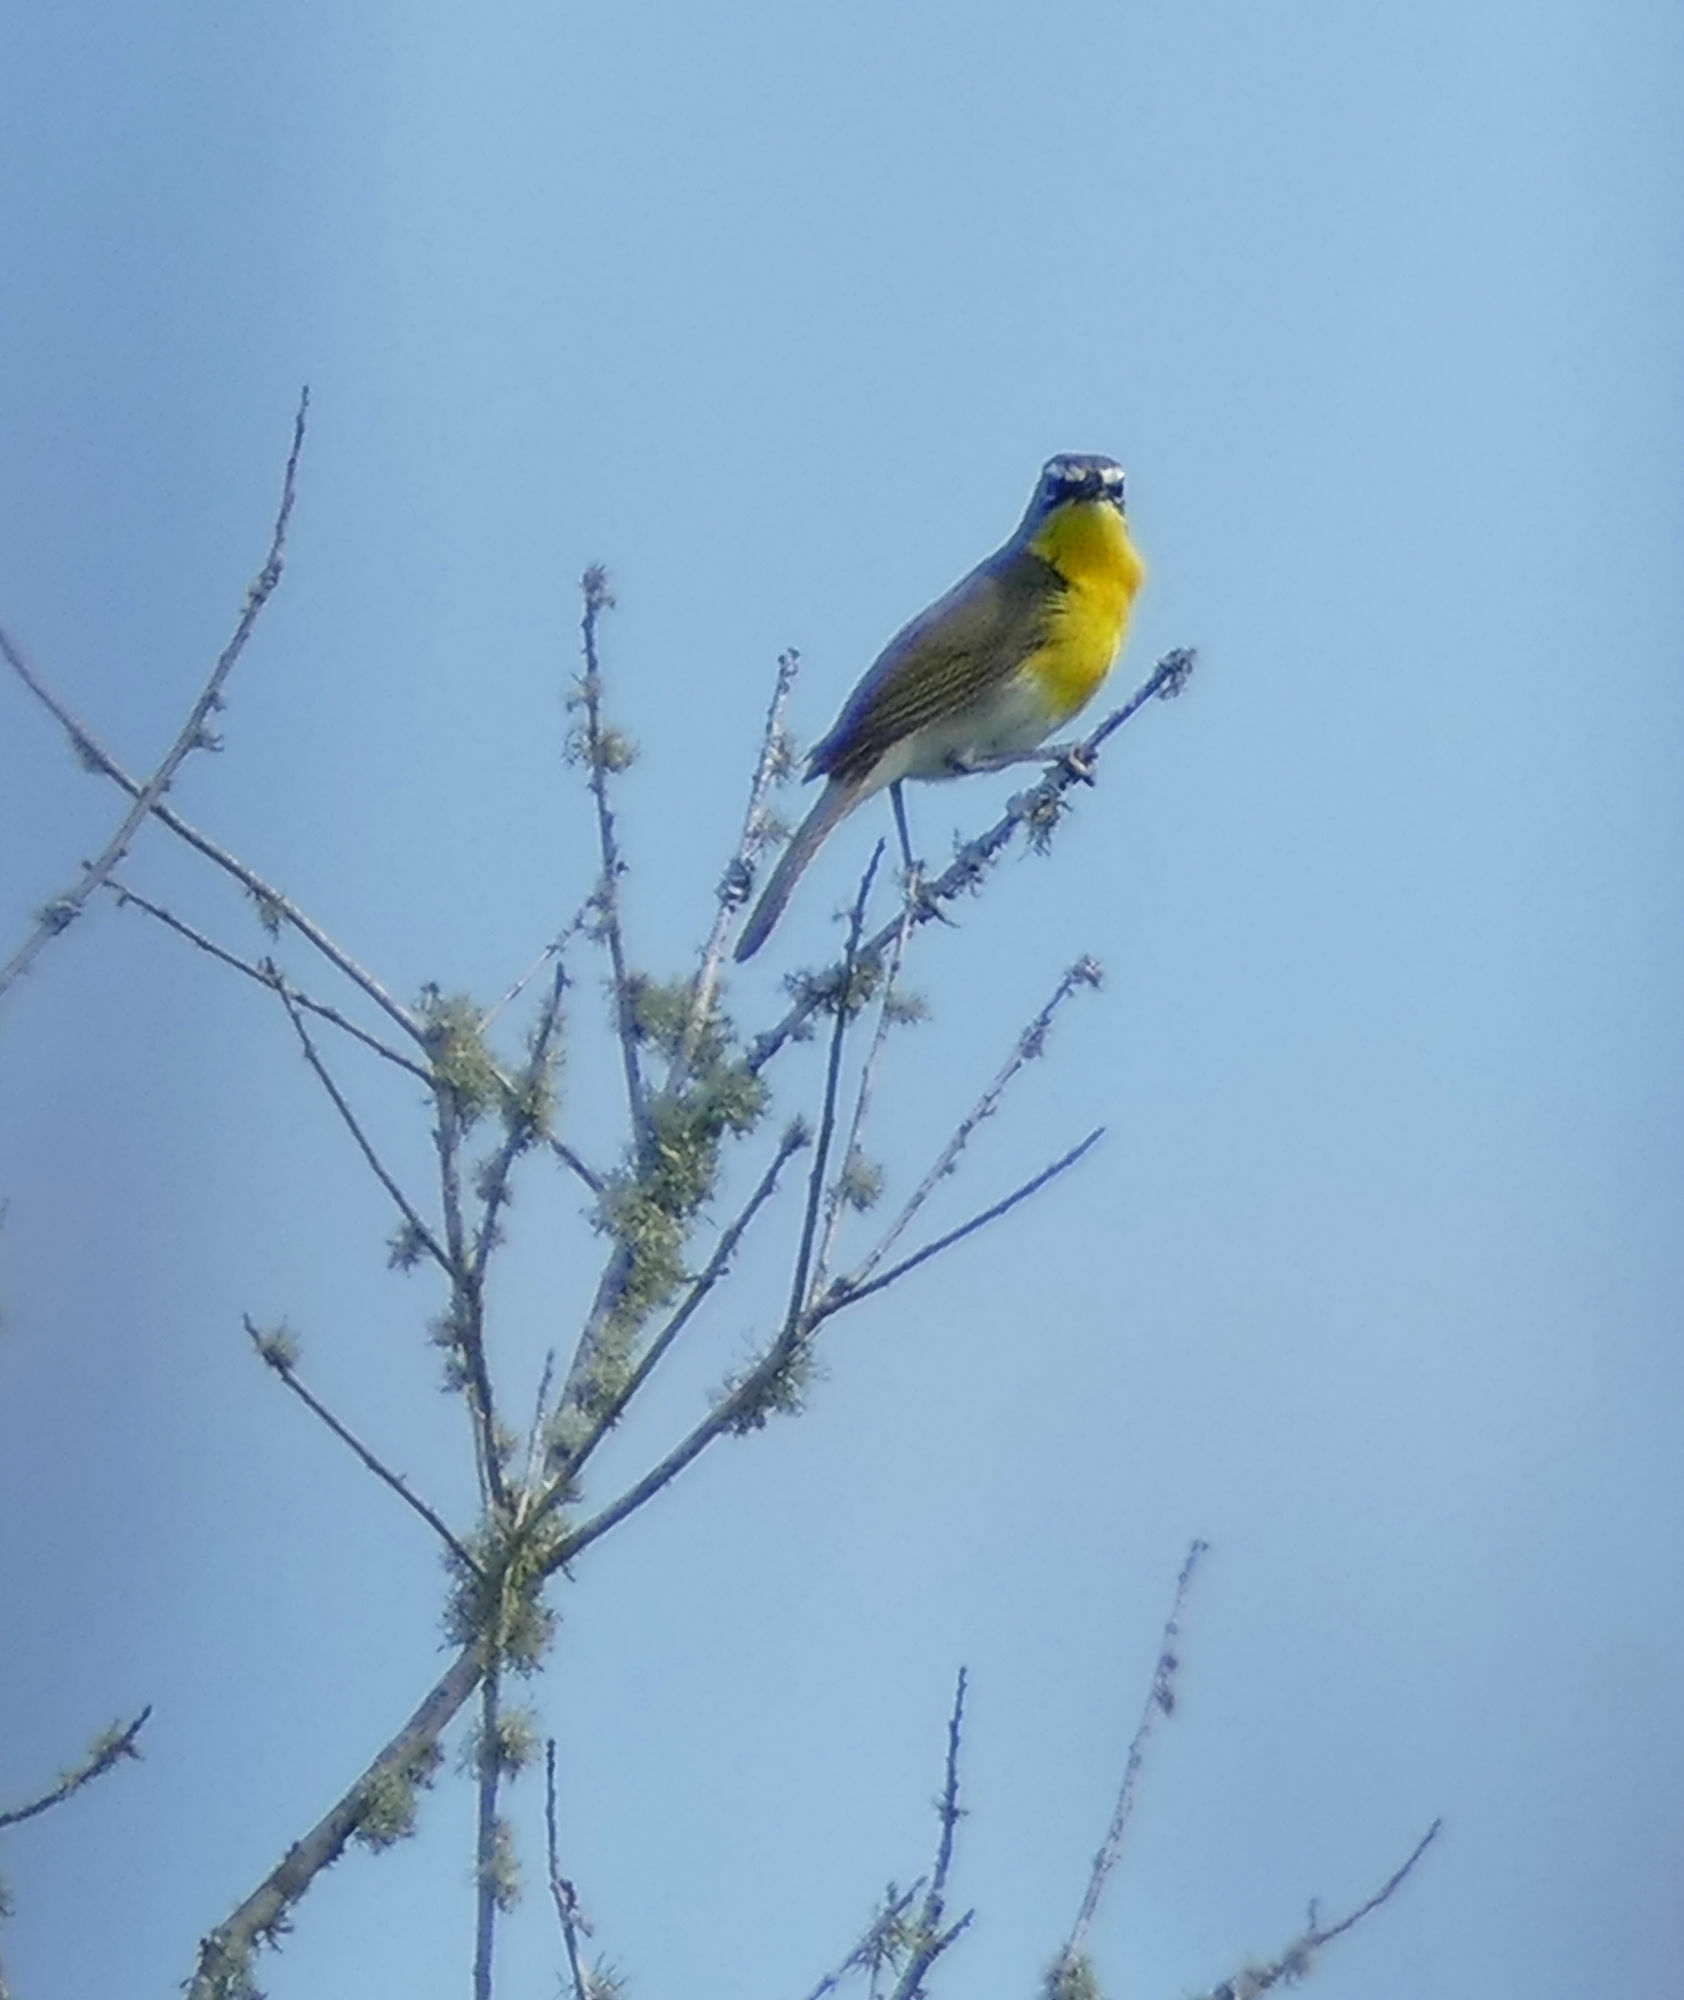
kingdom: Animalia
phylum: Chordata
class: Aves
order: Passeriformes
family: Parulidae
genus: Icteria
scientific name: Icteria virens
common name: Yellow-breasted chat
